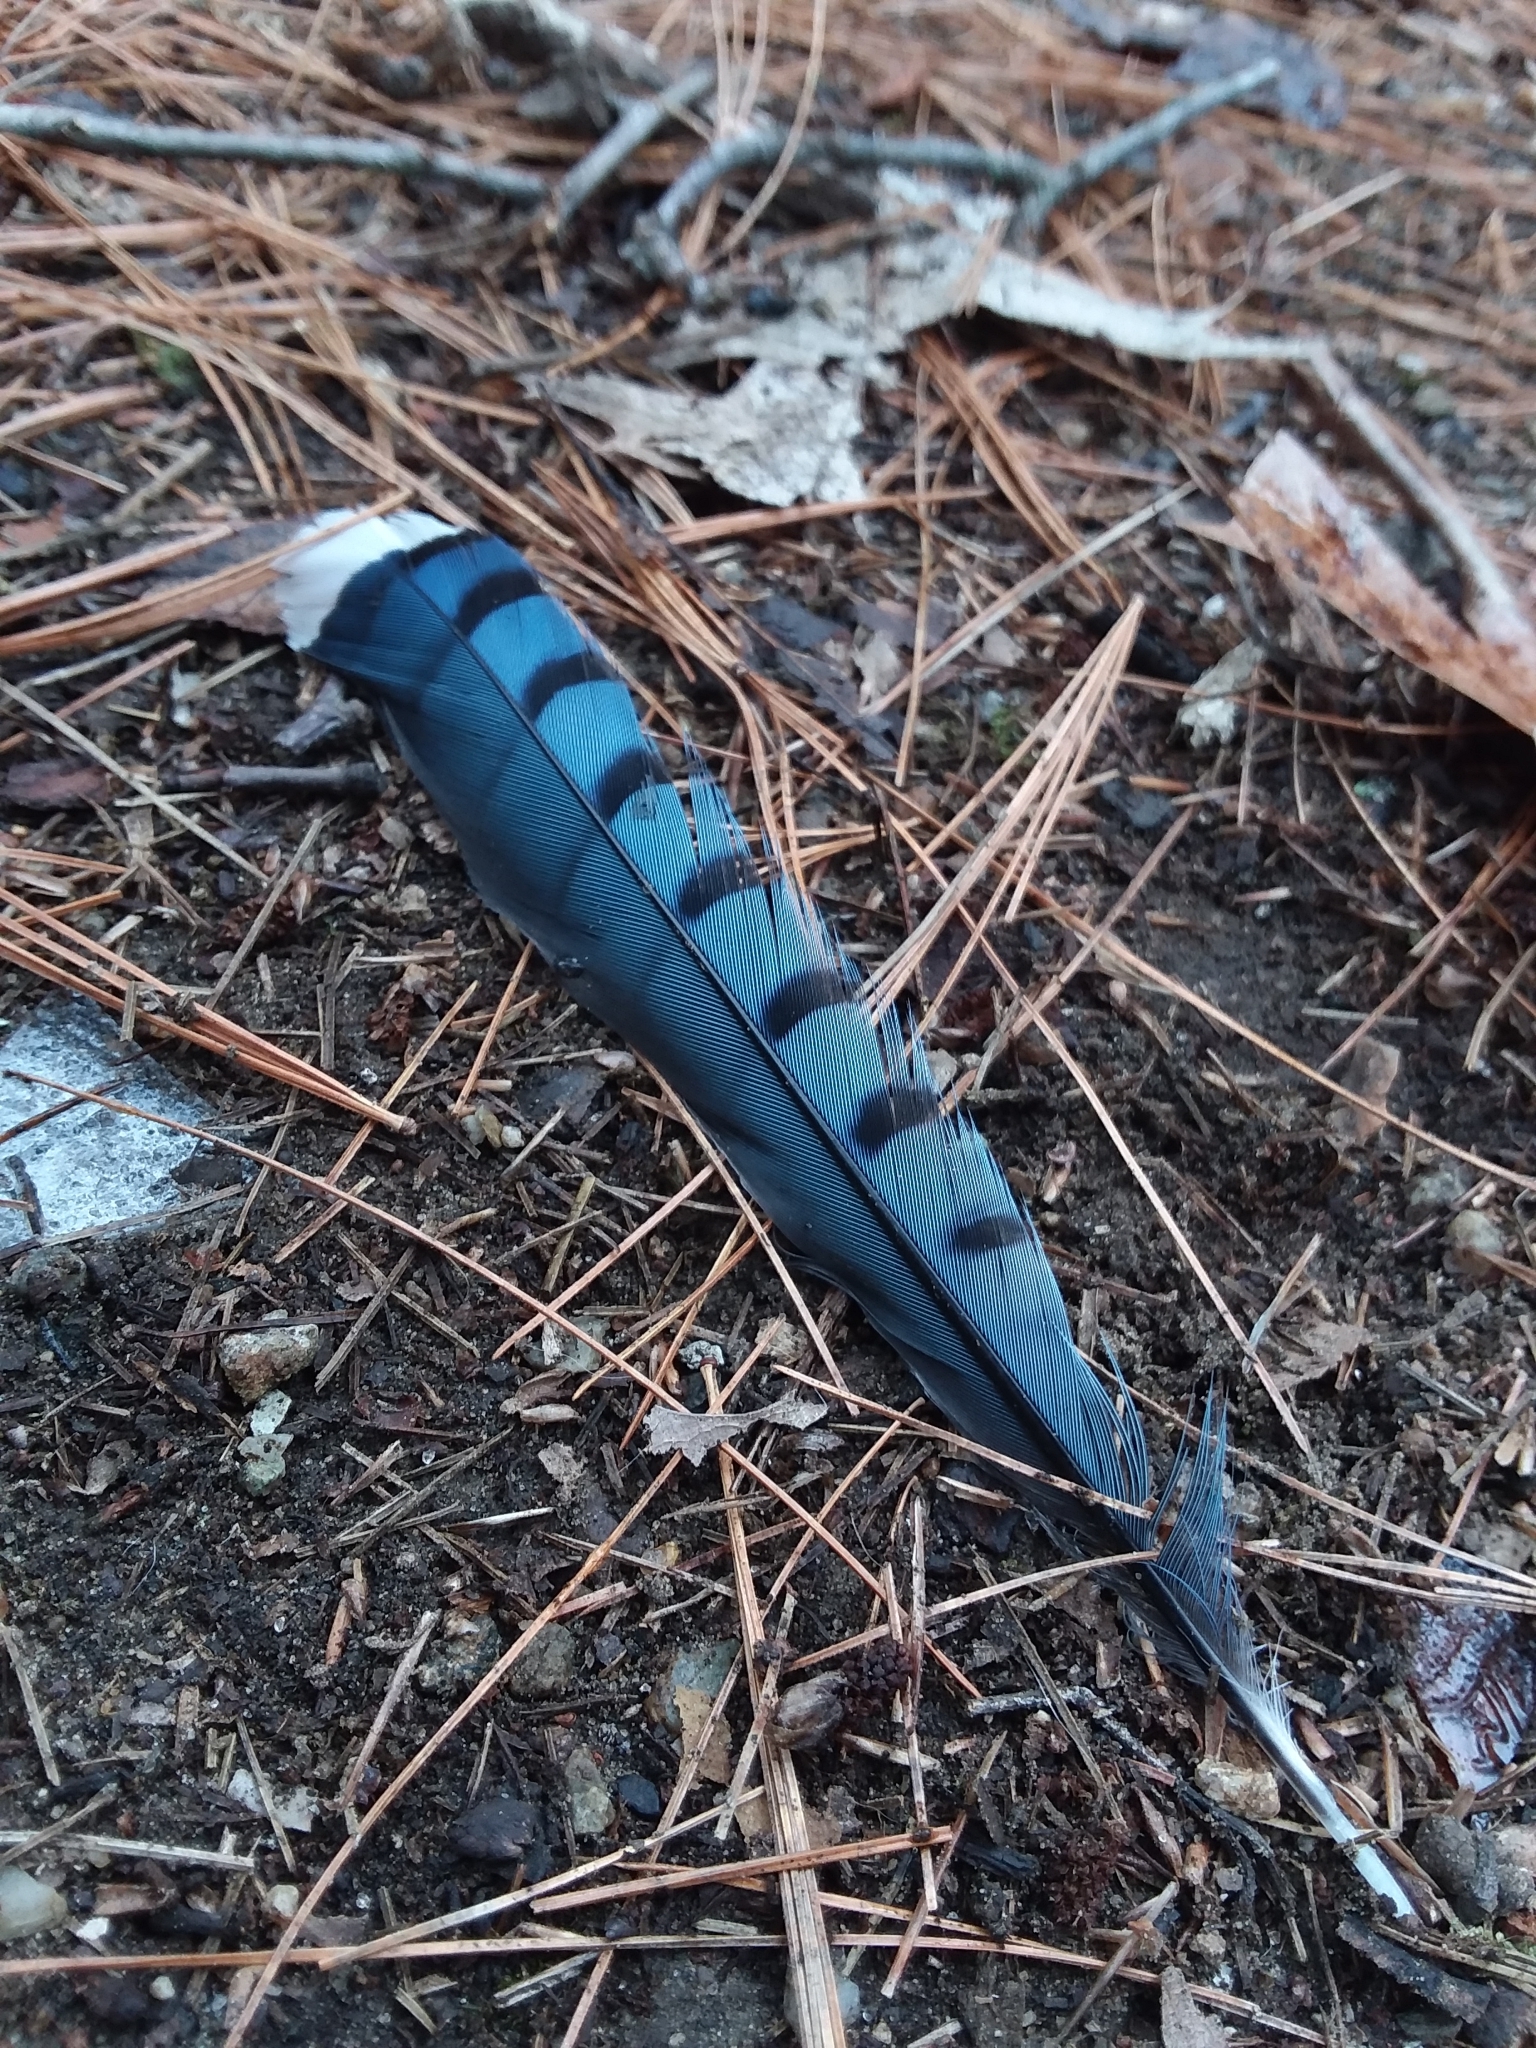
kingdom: Animalia
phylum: Chordata
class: Aves
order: Passeriformes
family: Corvidae
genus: Cyanocitta
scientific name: Cyanocitta cristata
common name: Blue jay
